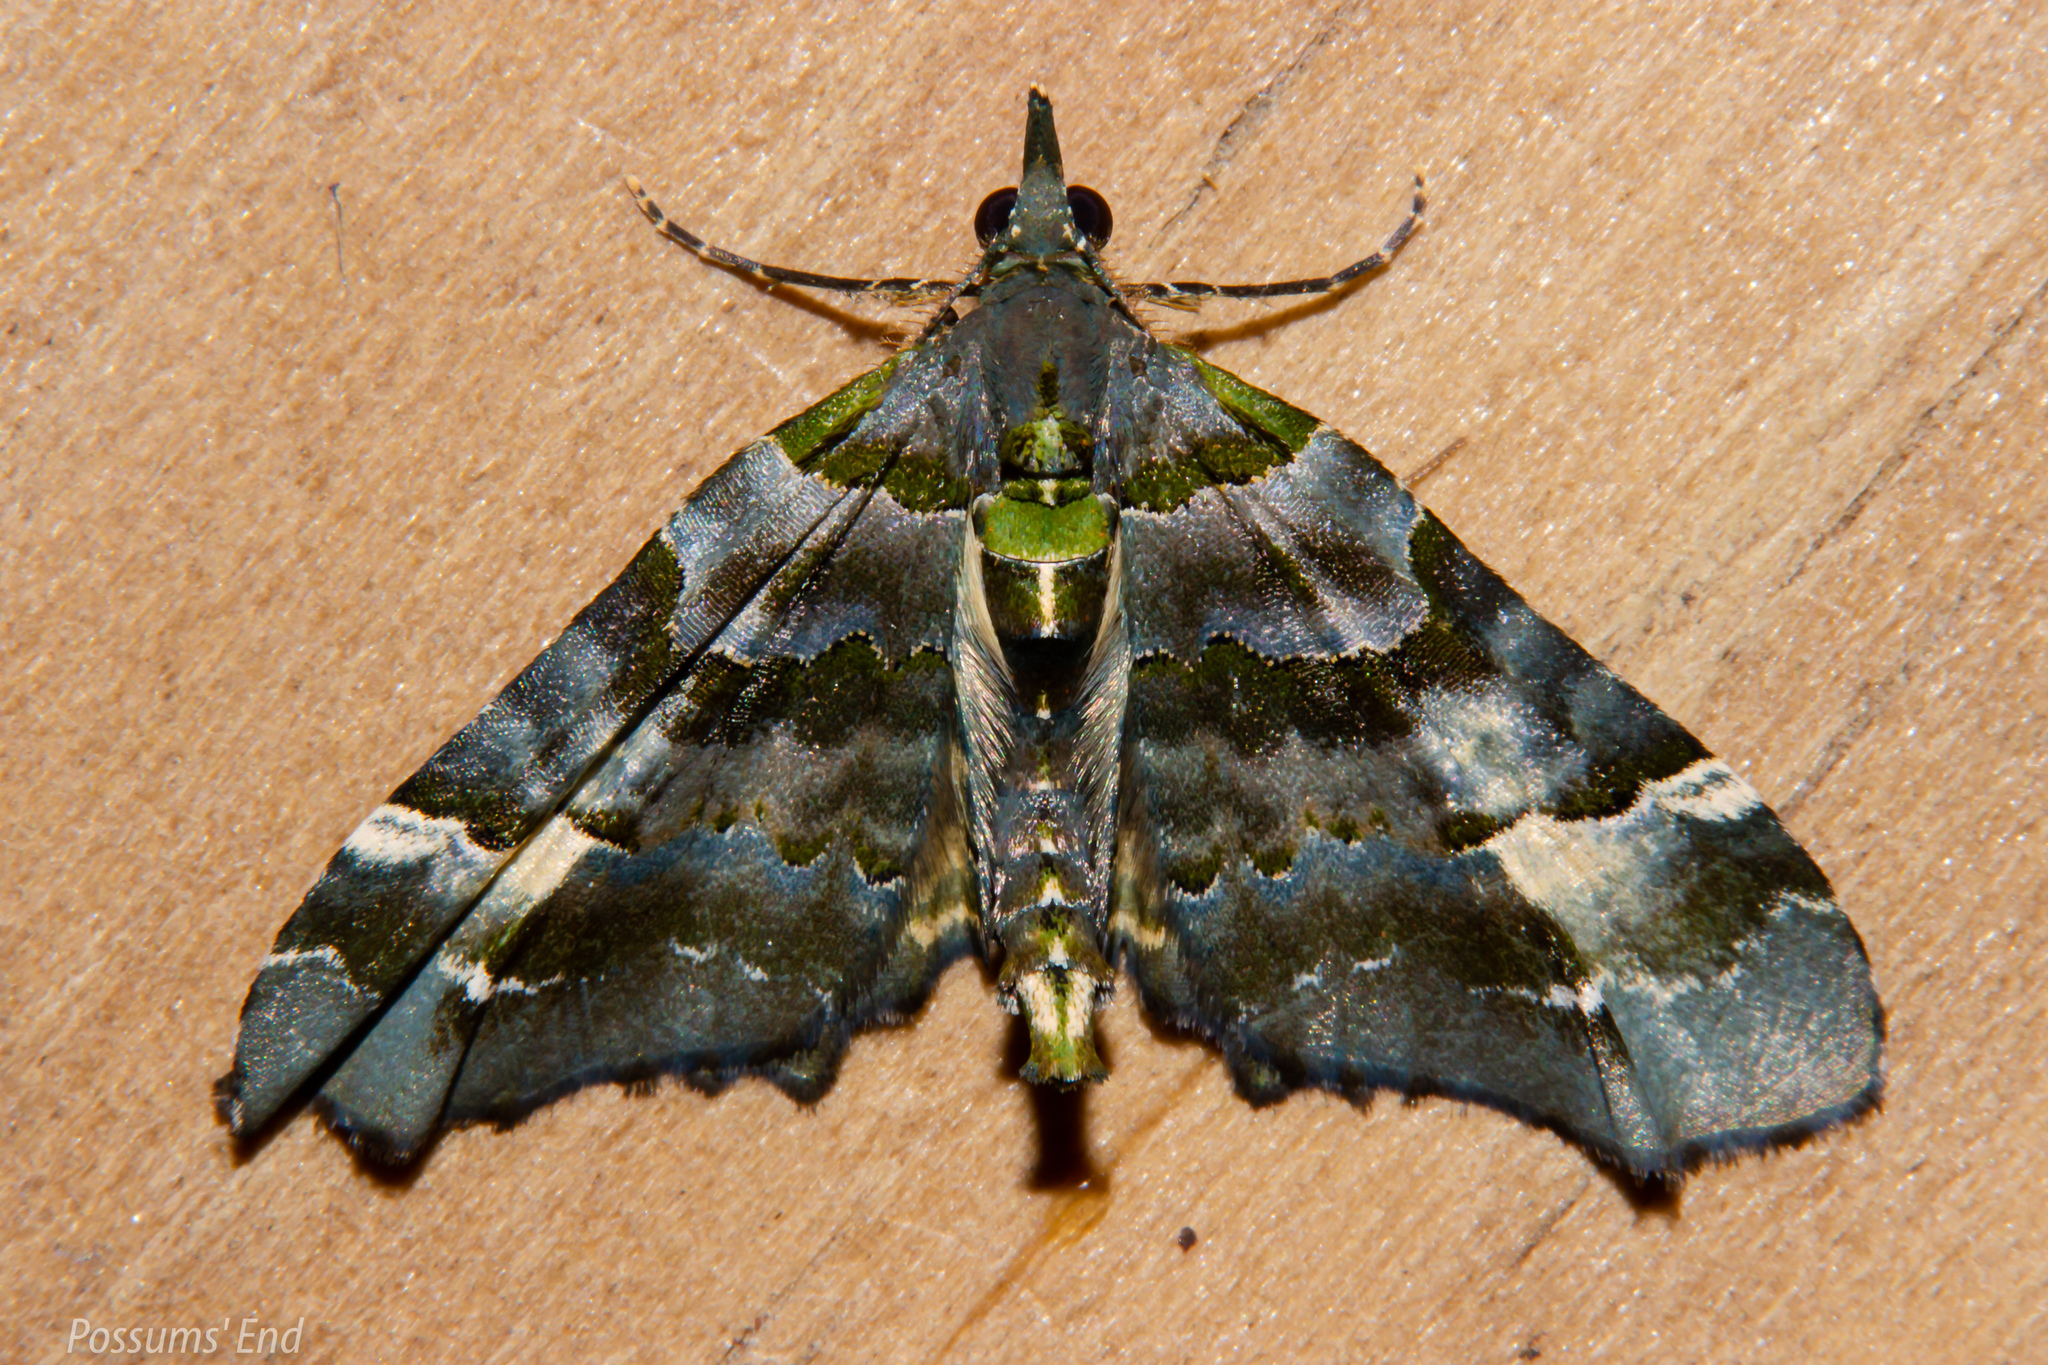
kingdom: Animalia
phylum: Arthropoda
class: Insecta
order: Lepidoptera
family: Geometridae
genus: Elvia
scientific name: Elvia glaucata
